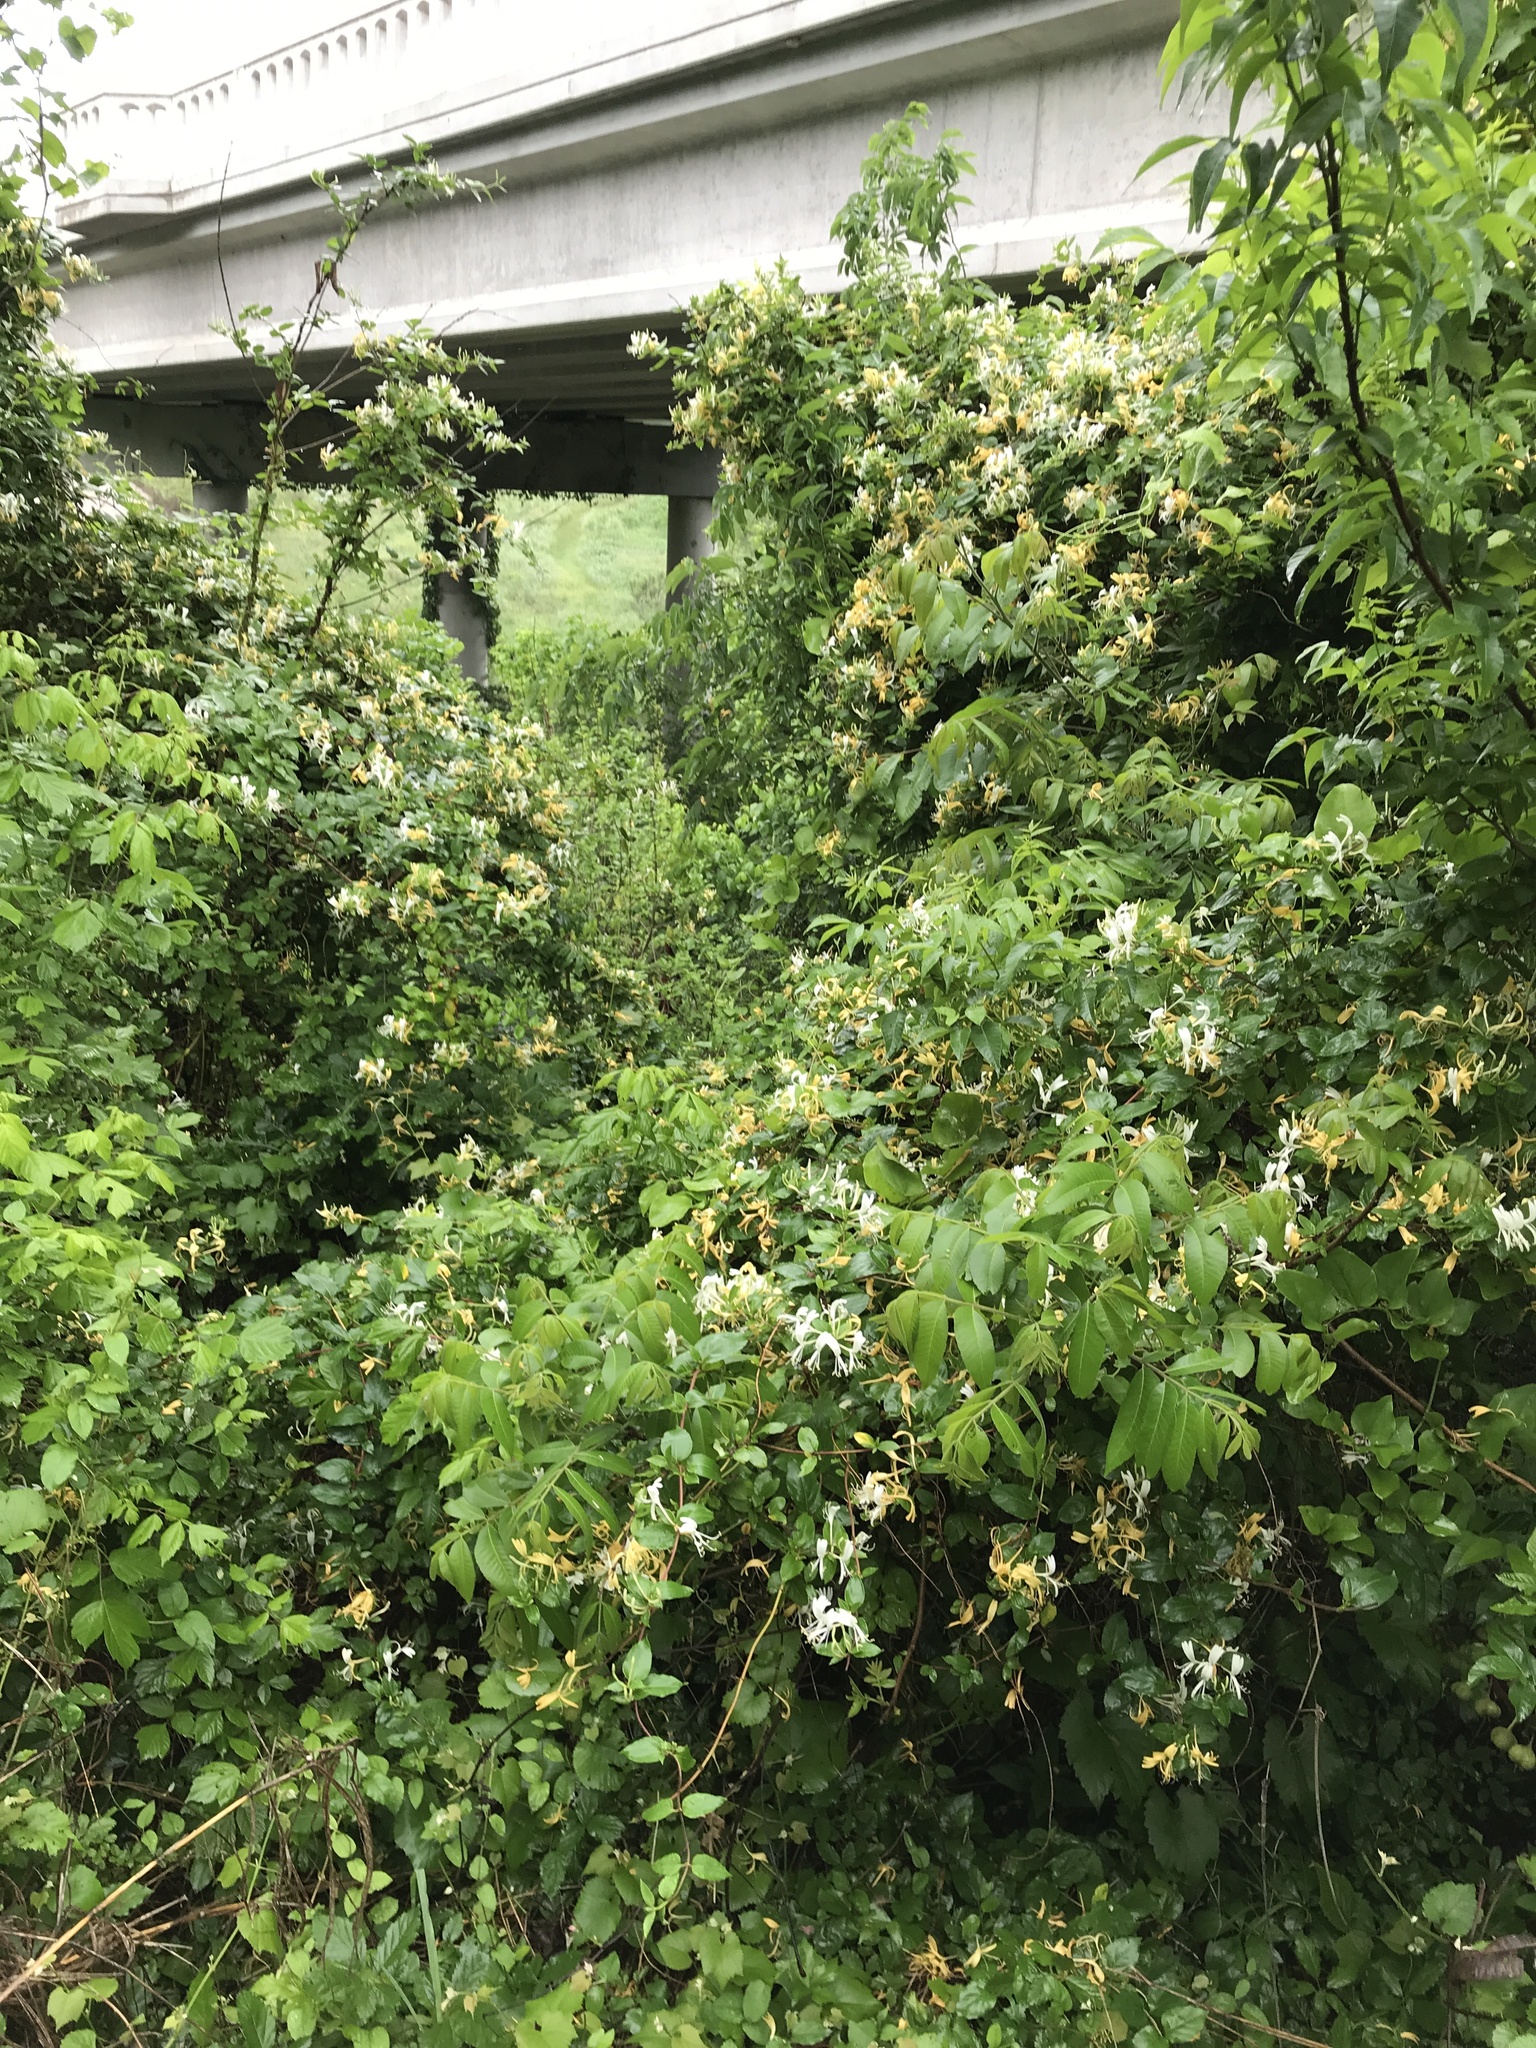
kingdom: Plantae
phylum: Tracheophyta
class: Magnoliopsida
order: Dipsacales
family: Caprifoliaceae
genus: Lonicera
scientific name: Lonicera japonica
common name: Japanese honeysuckle
